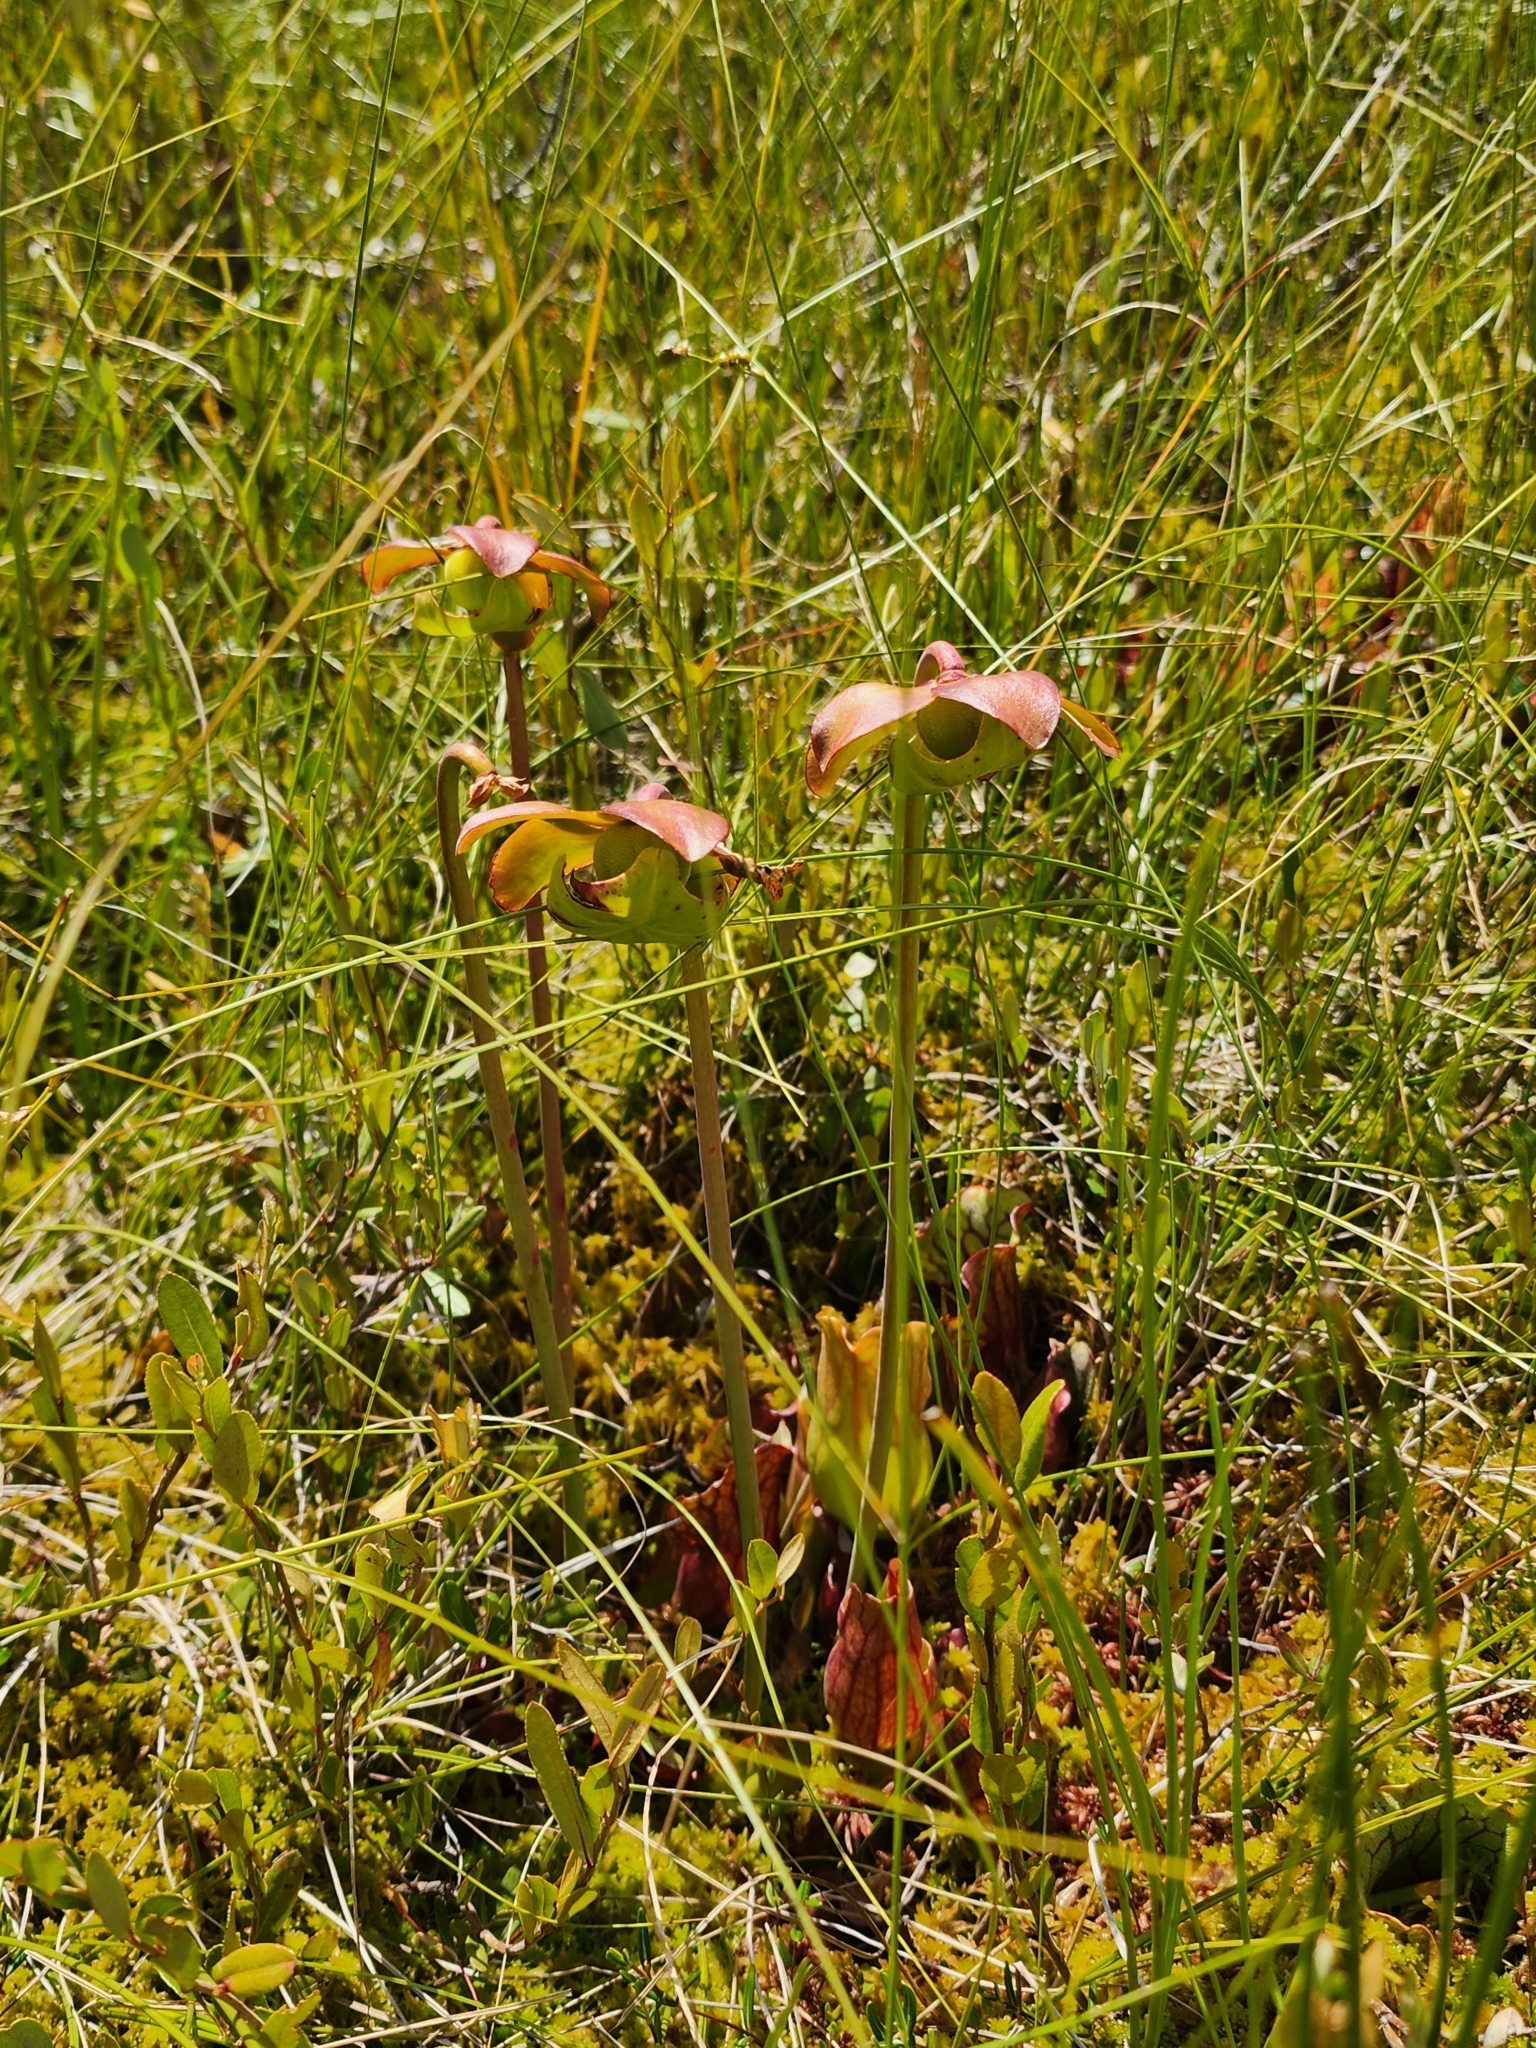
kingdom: Plantae
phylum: Tracheophyta
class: Magnoliopsida
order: Ericales
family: Sarraceniaceae
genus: Sarracenia
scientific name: Sarracenia purpurea
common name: Pitcherplant
